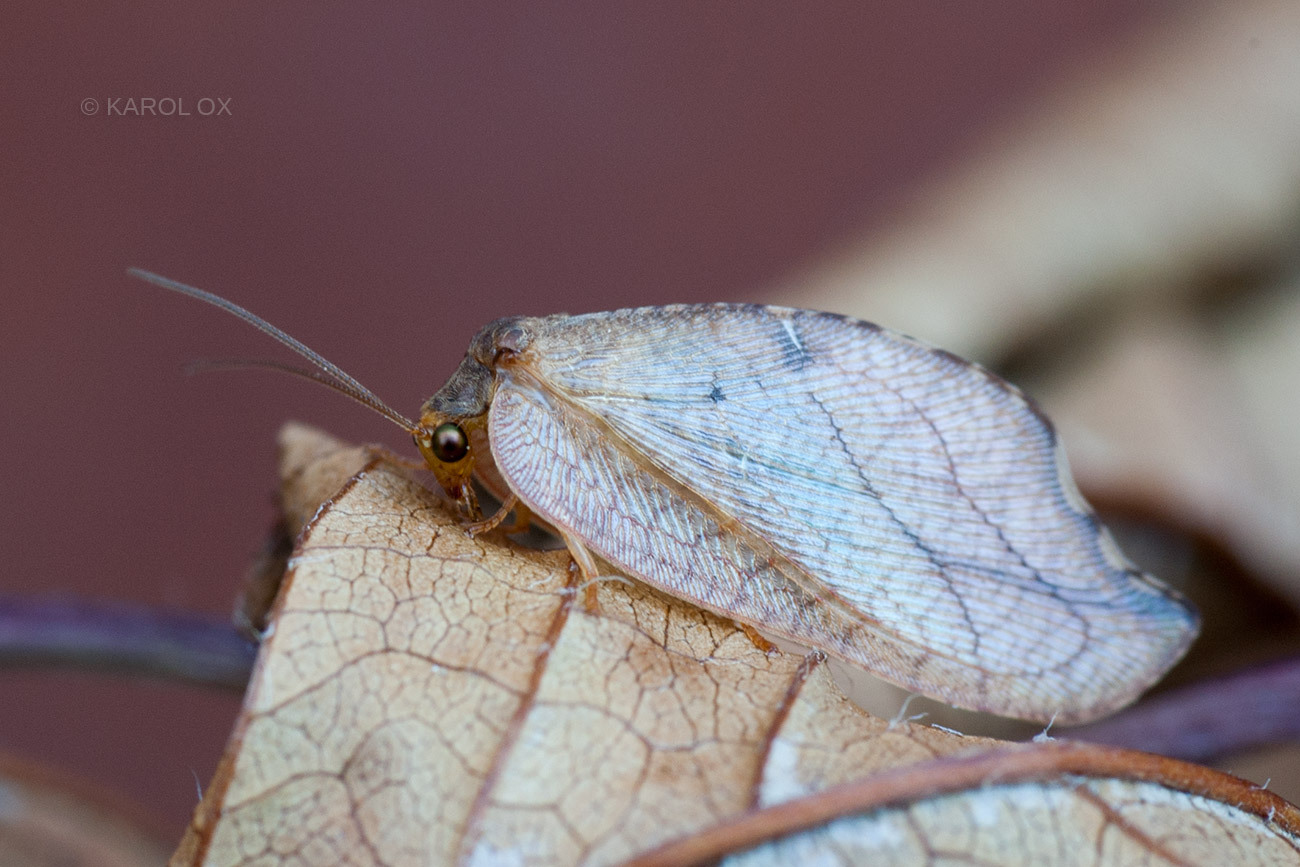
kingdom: Animalia
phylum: Arthropoda
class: Insecta
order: Neuroptera
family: Hemerobiidae
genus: Drepanepteryx
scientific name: Drepanepteryx phalaenoides
